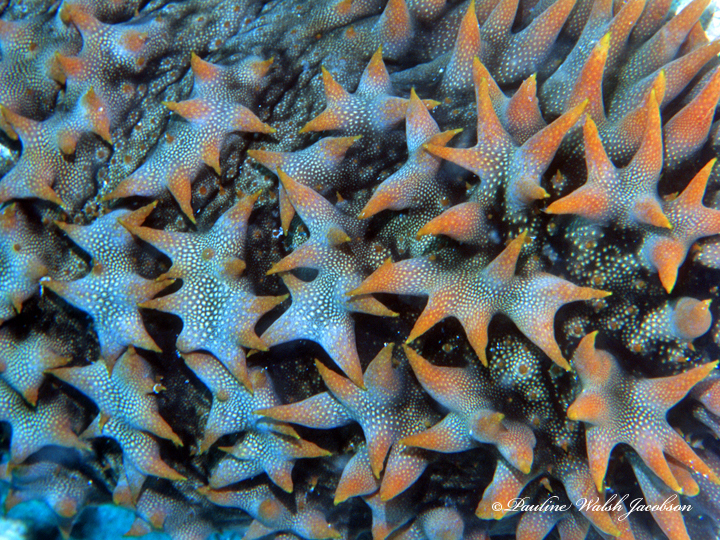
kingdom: Animalia
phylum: Echinodermata
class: Holothuroidea
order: Synallactida
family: Stichopodidae
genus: Thelenota
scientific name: Thelenota ananas
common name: Prickly redfish
